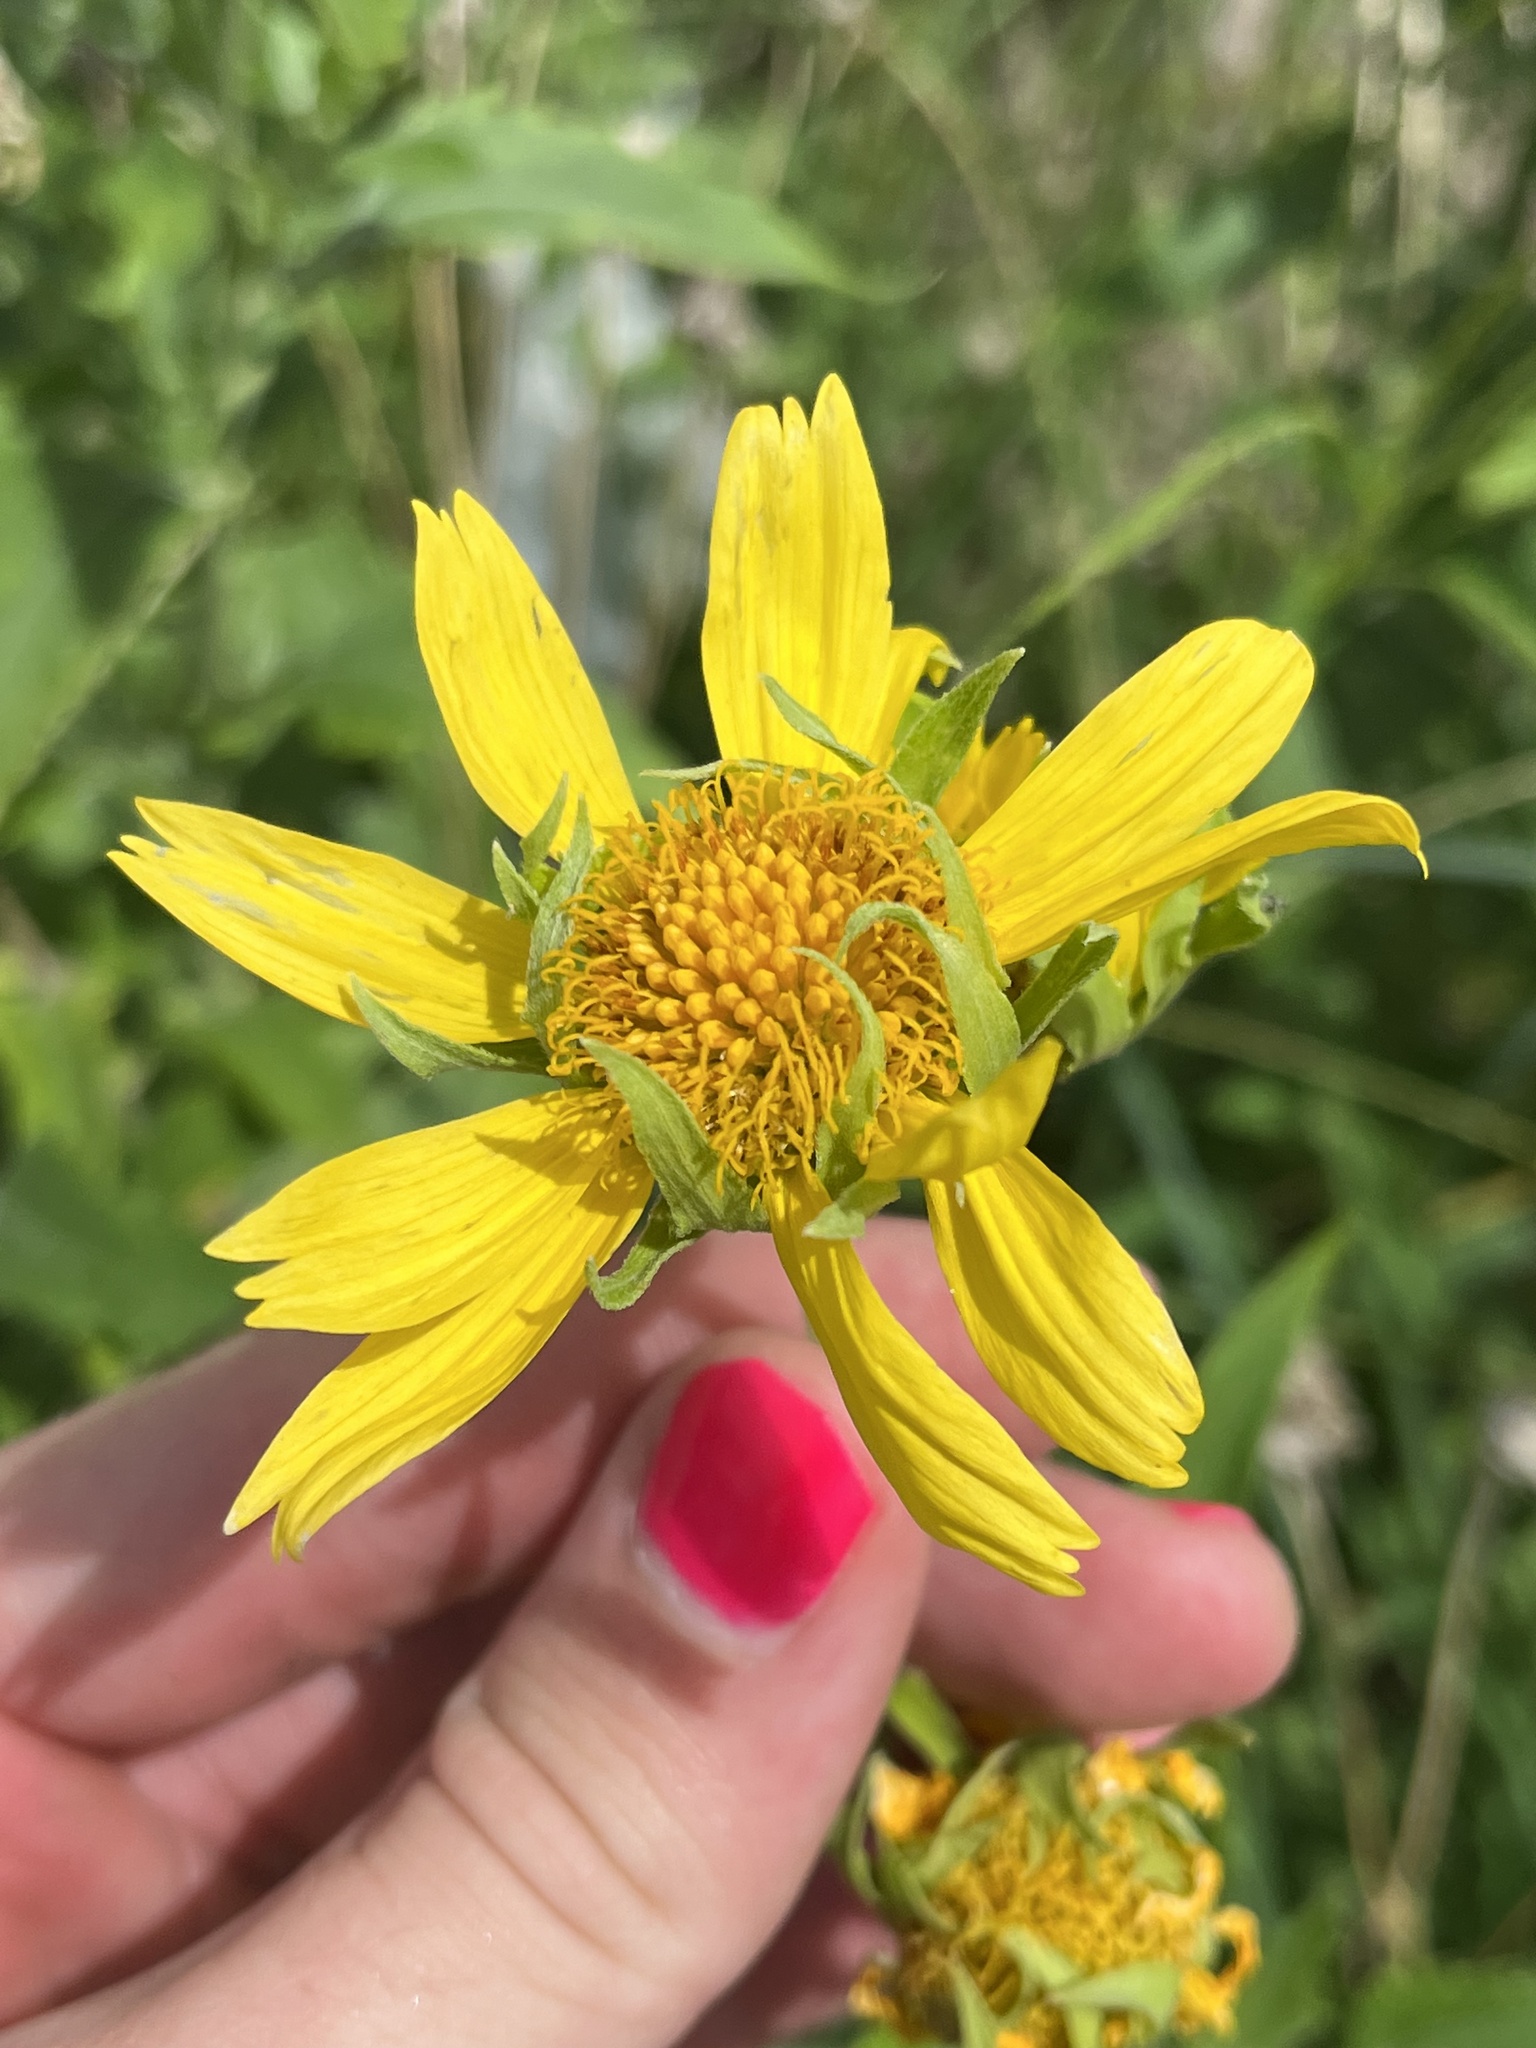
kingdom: Plantae
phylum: Tracheophyta
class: Magnoliopsida
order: Asterales
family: Asteraceae
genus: Verbesina
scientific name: Verbesina encelioides
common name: Golden crownbeard
